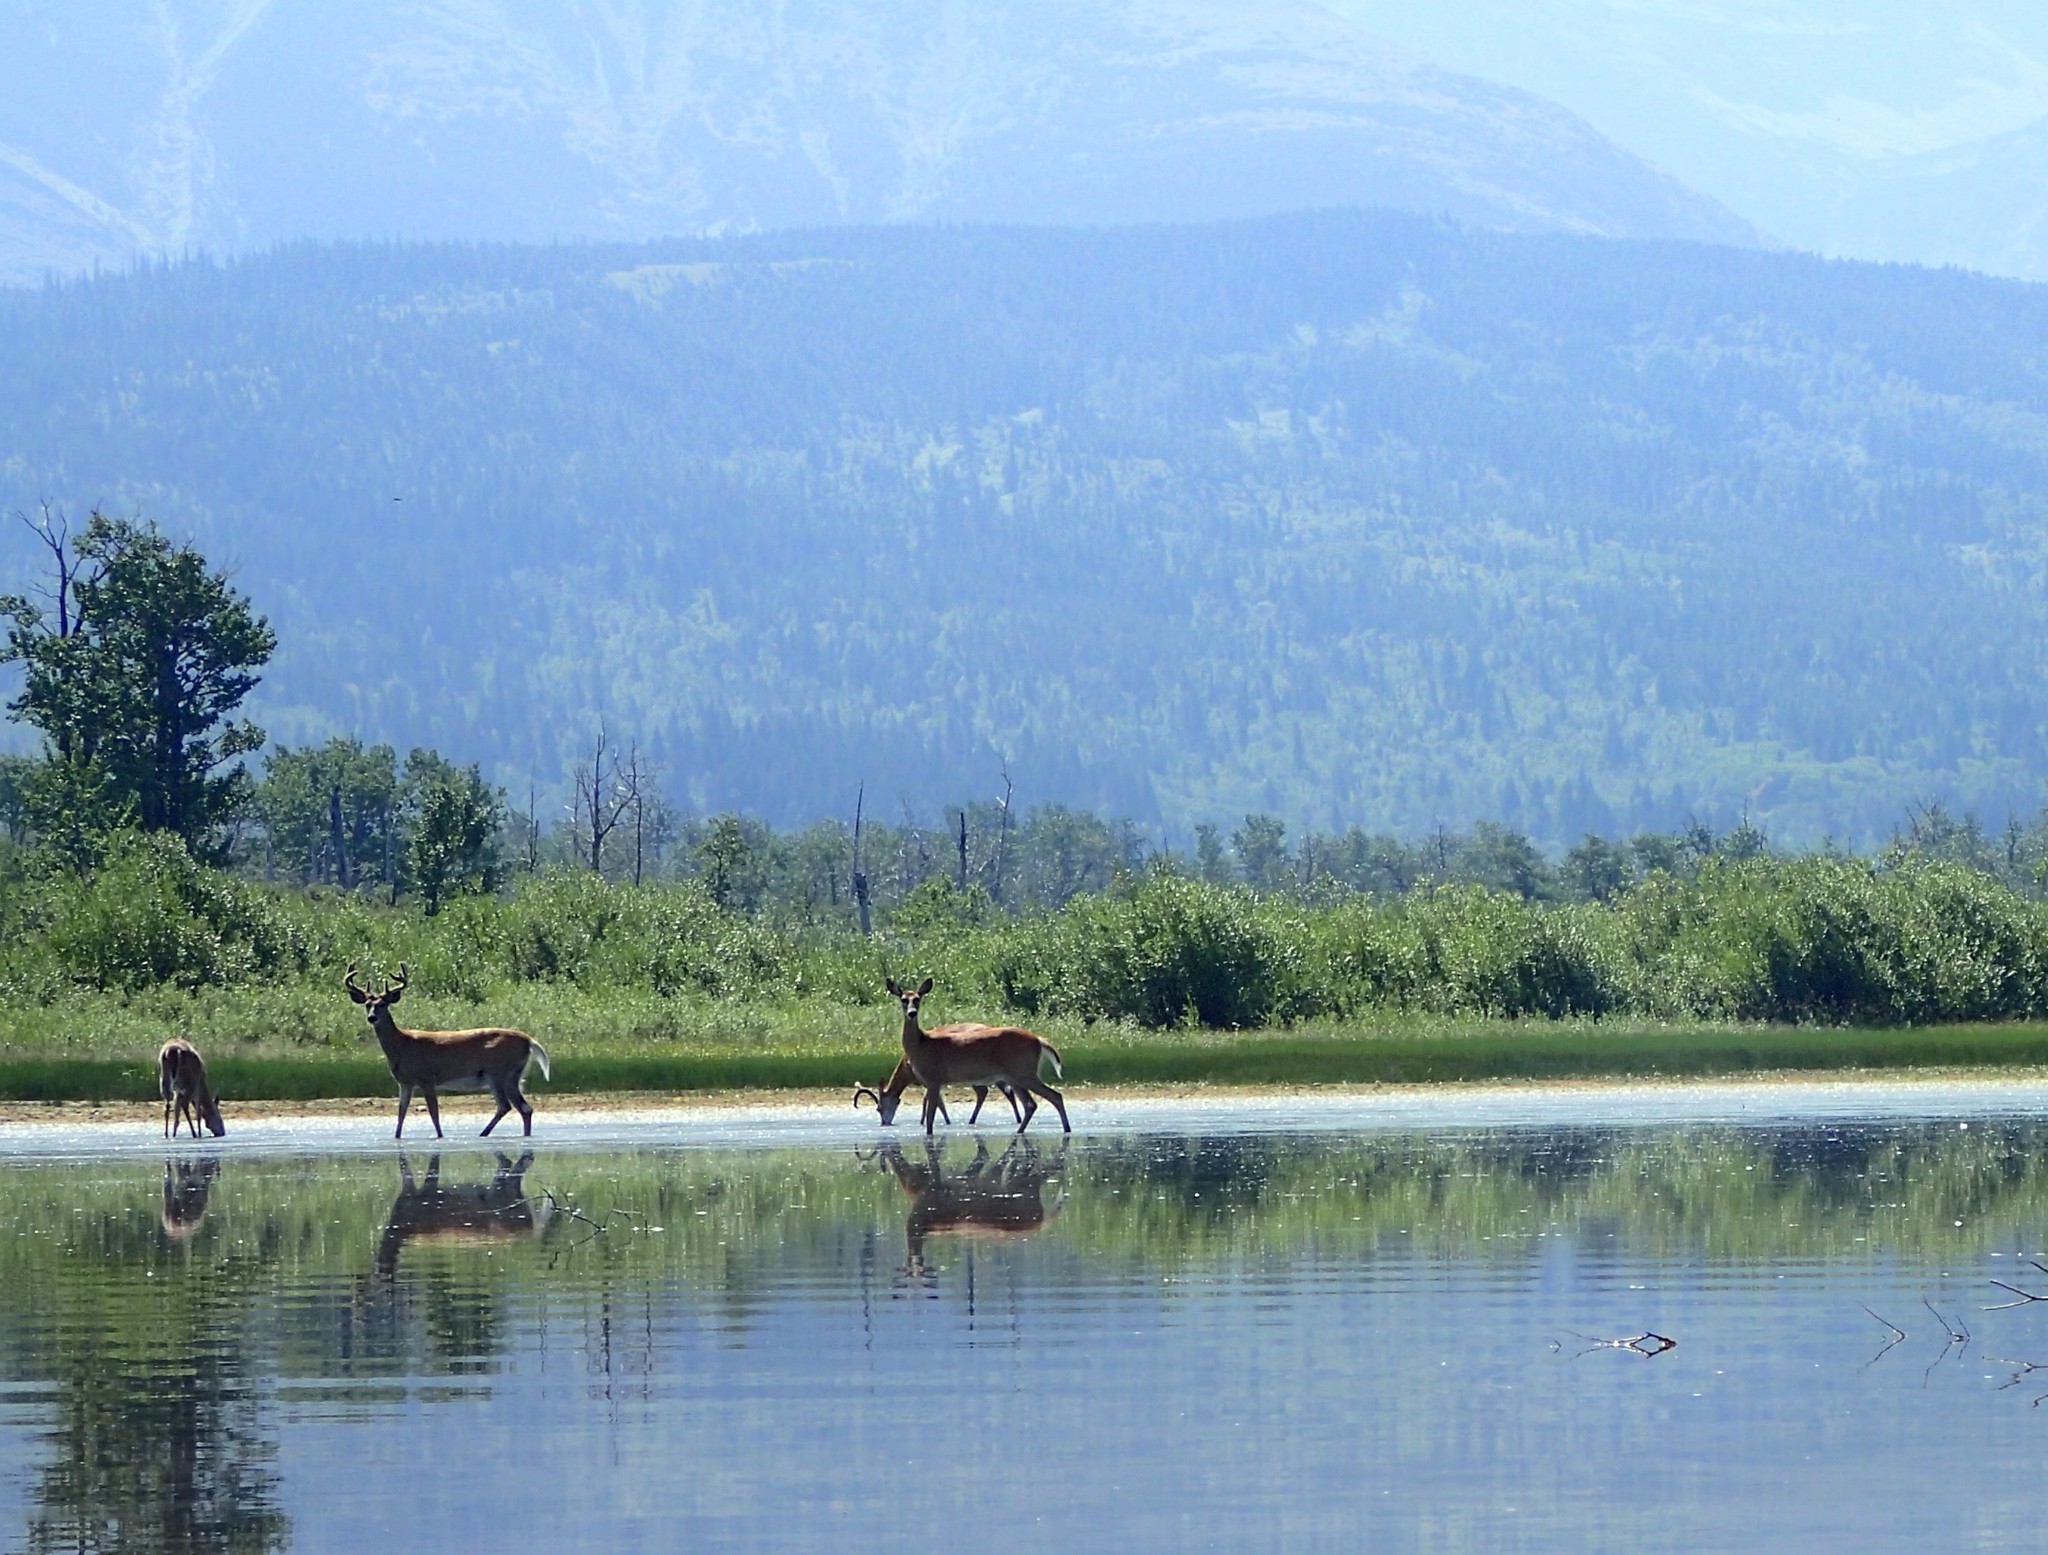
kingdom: Animalia
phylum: Chordata
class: Mammalia
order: Artiodactyla
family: Cervidae
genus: Odocoileus
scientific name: Odocoileus virginianus
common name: White-tailed deer
